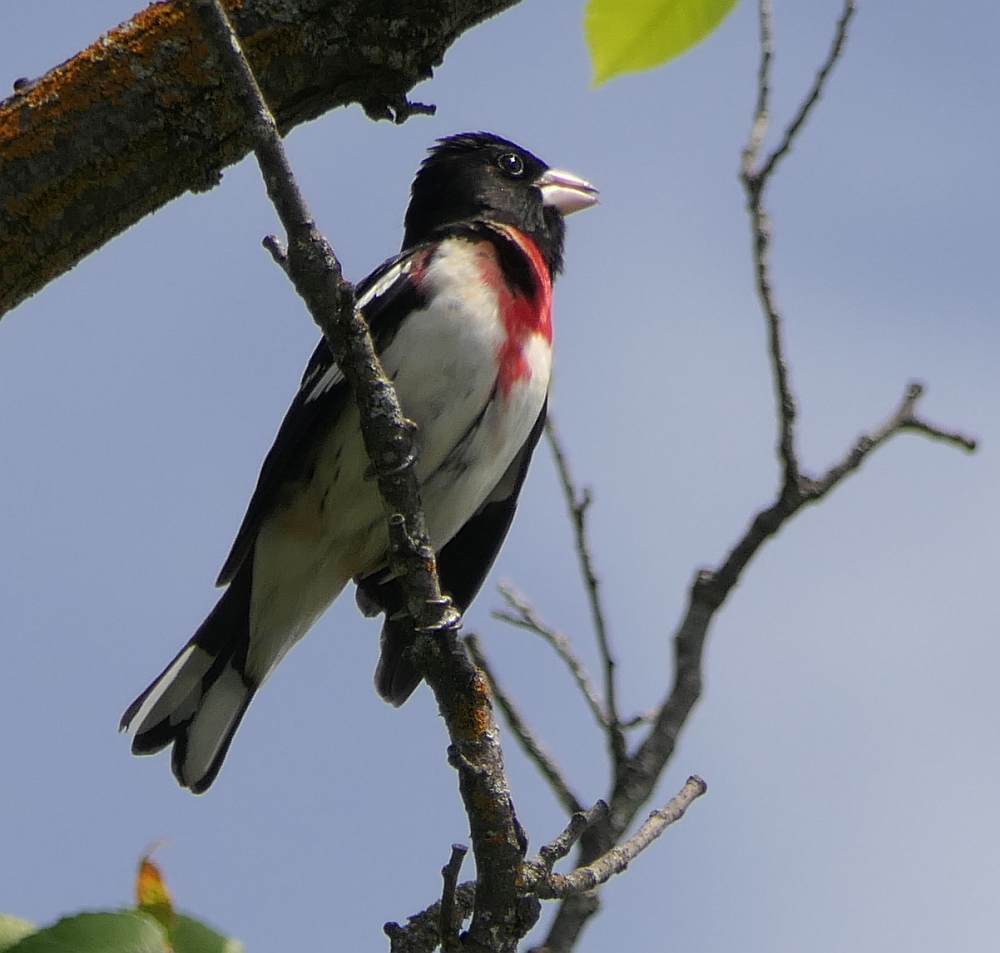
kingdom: Animalia
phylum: Chordata
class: Aves
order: Passeriformes
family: Cardinalidae
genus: Pheucticus
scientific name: Pheucticus ludovicianus
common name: Rose-breasted grosbeak
